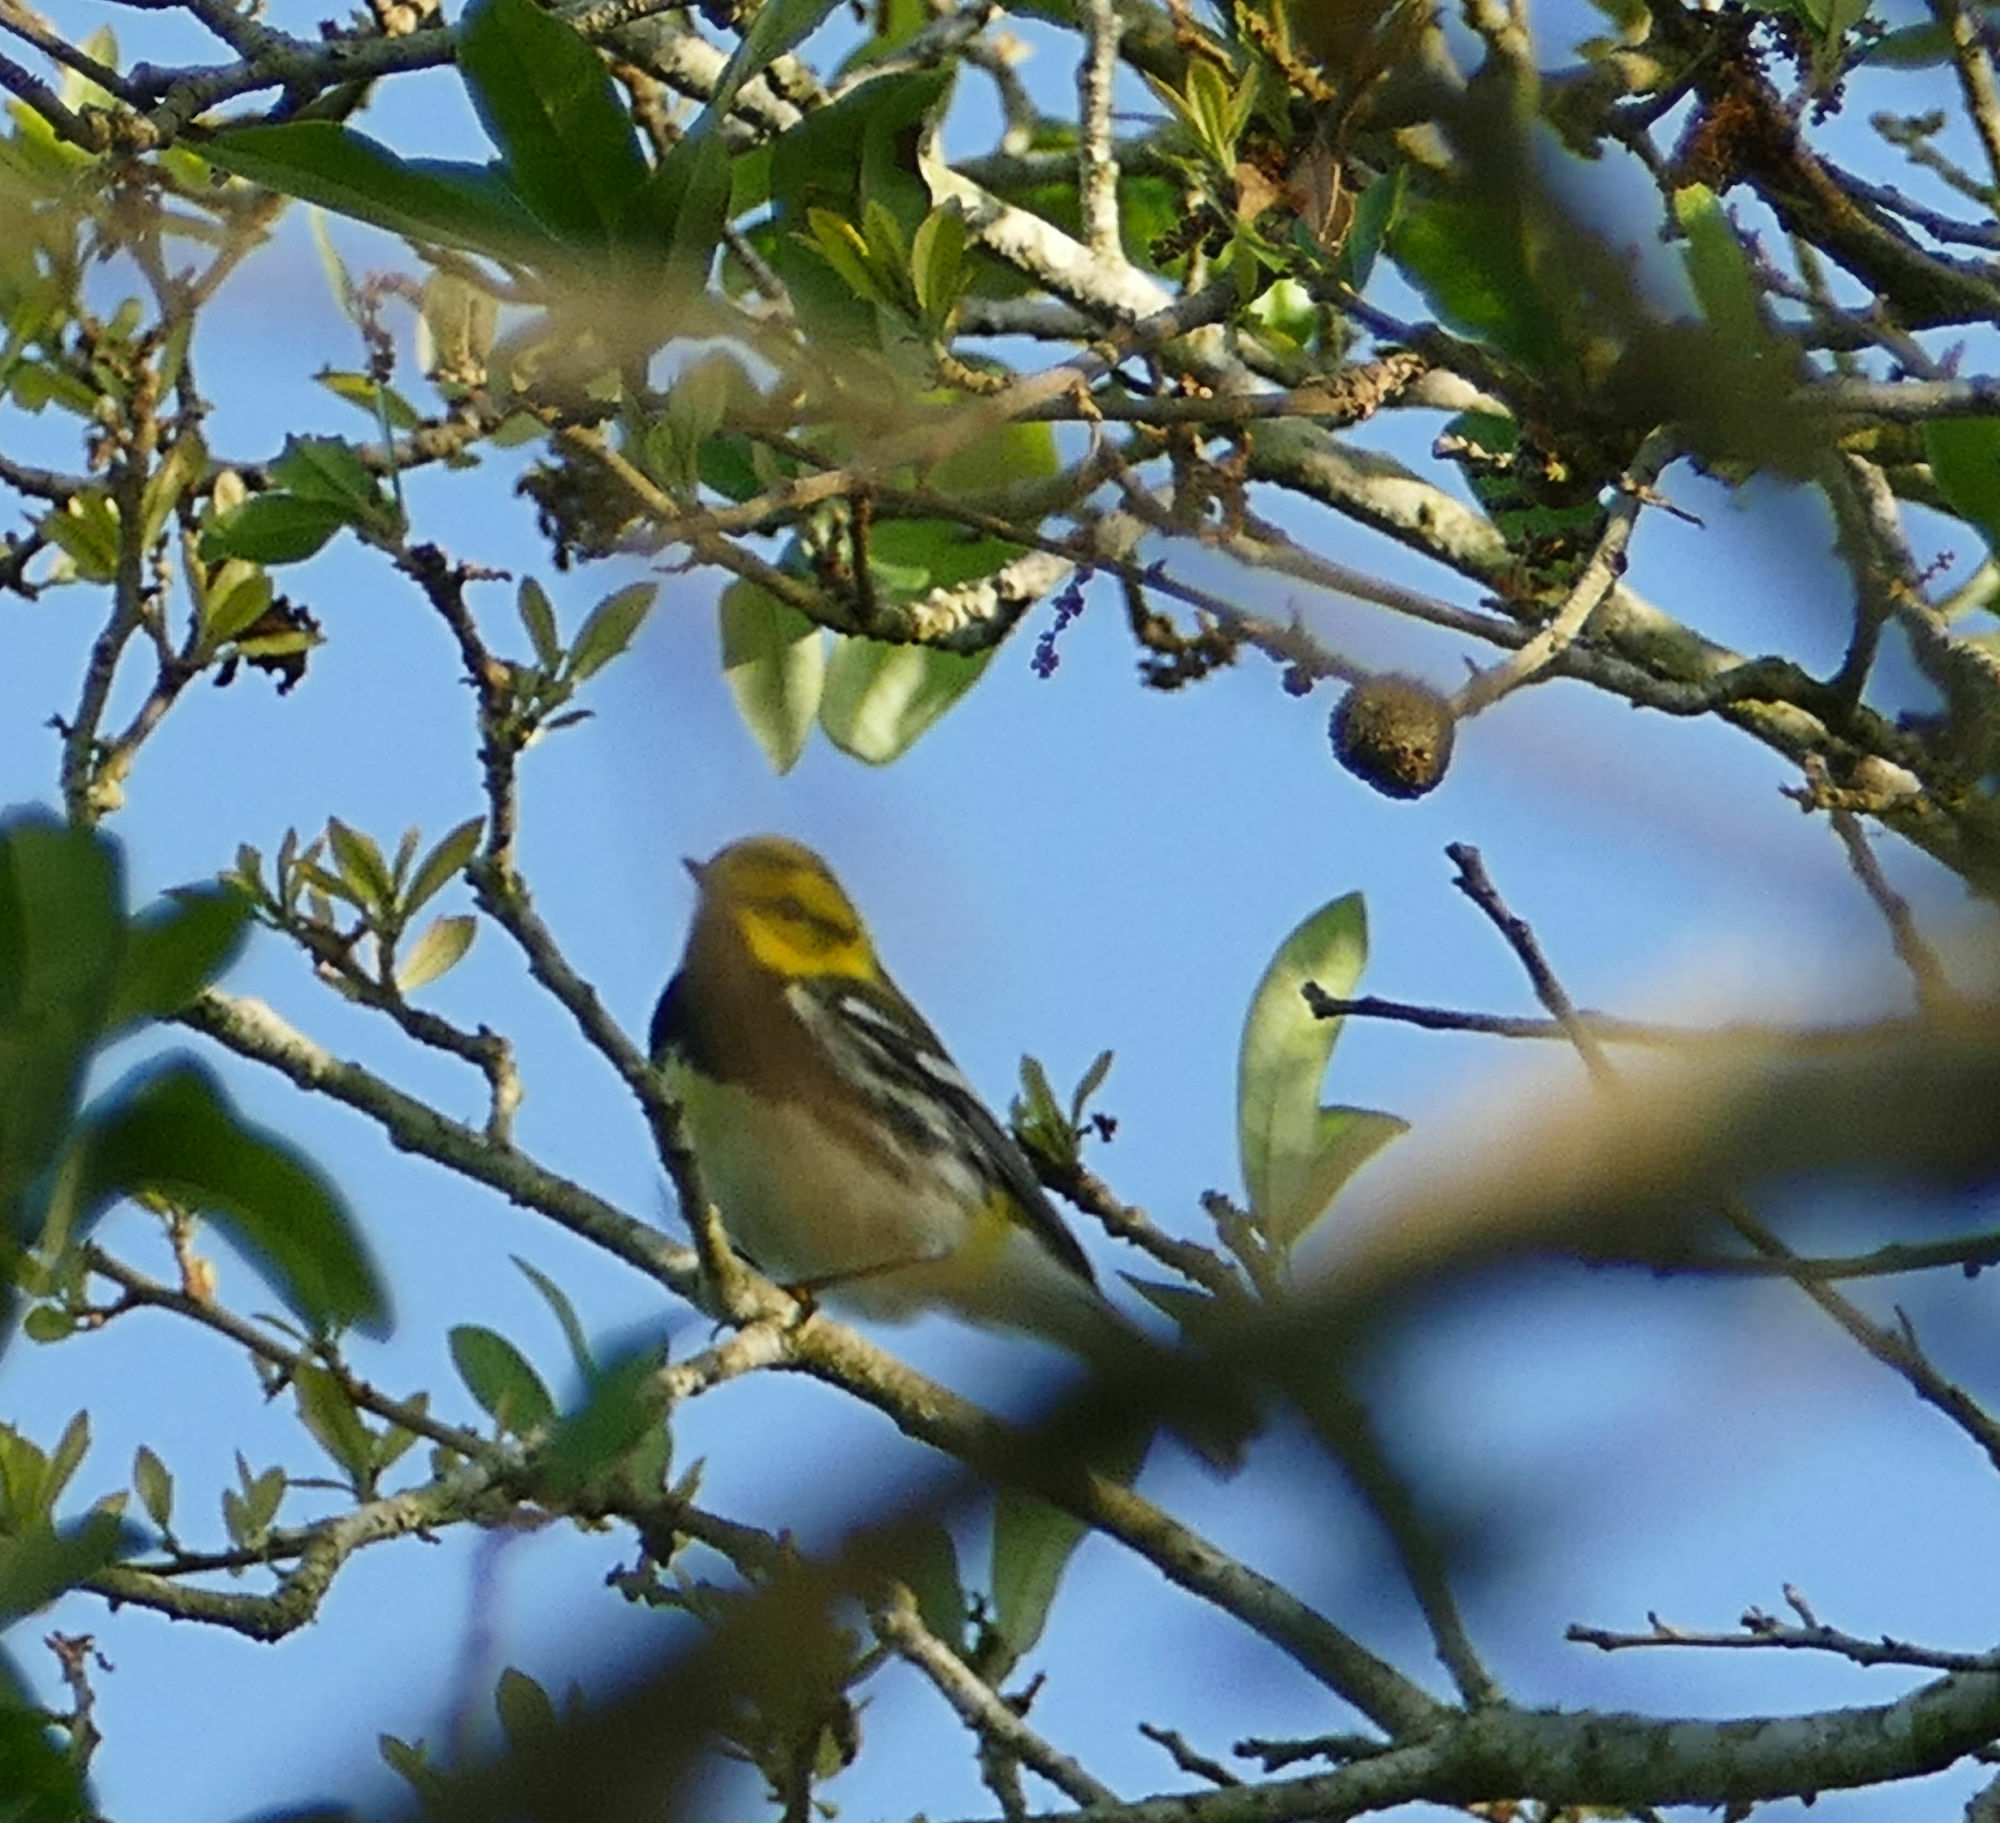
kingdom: Animalia
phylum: Chordata
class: Aves
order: Passeriformes
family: Parulidae
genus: Setophaga
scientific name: Setophaga virens
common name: Black-throated green warbler
